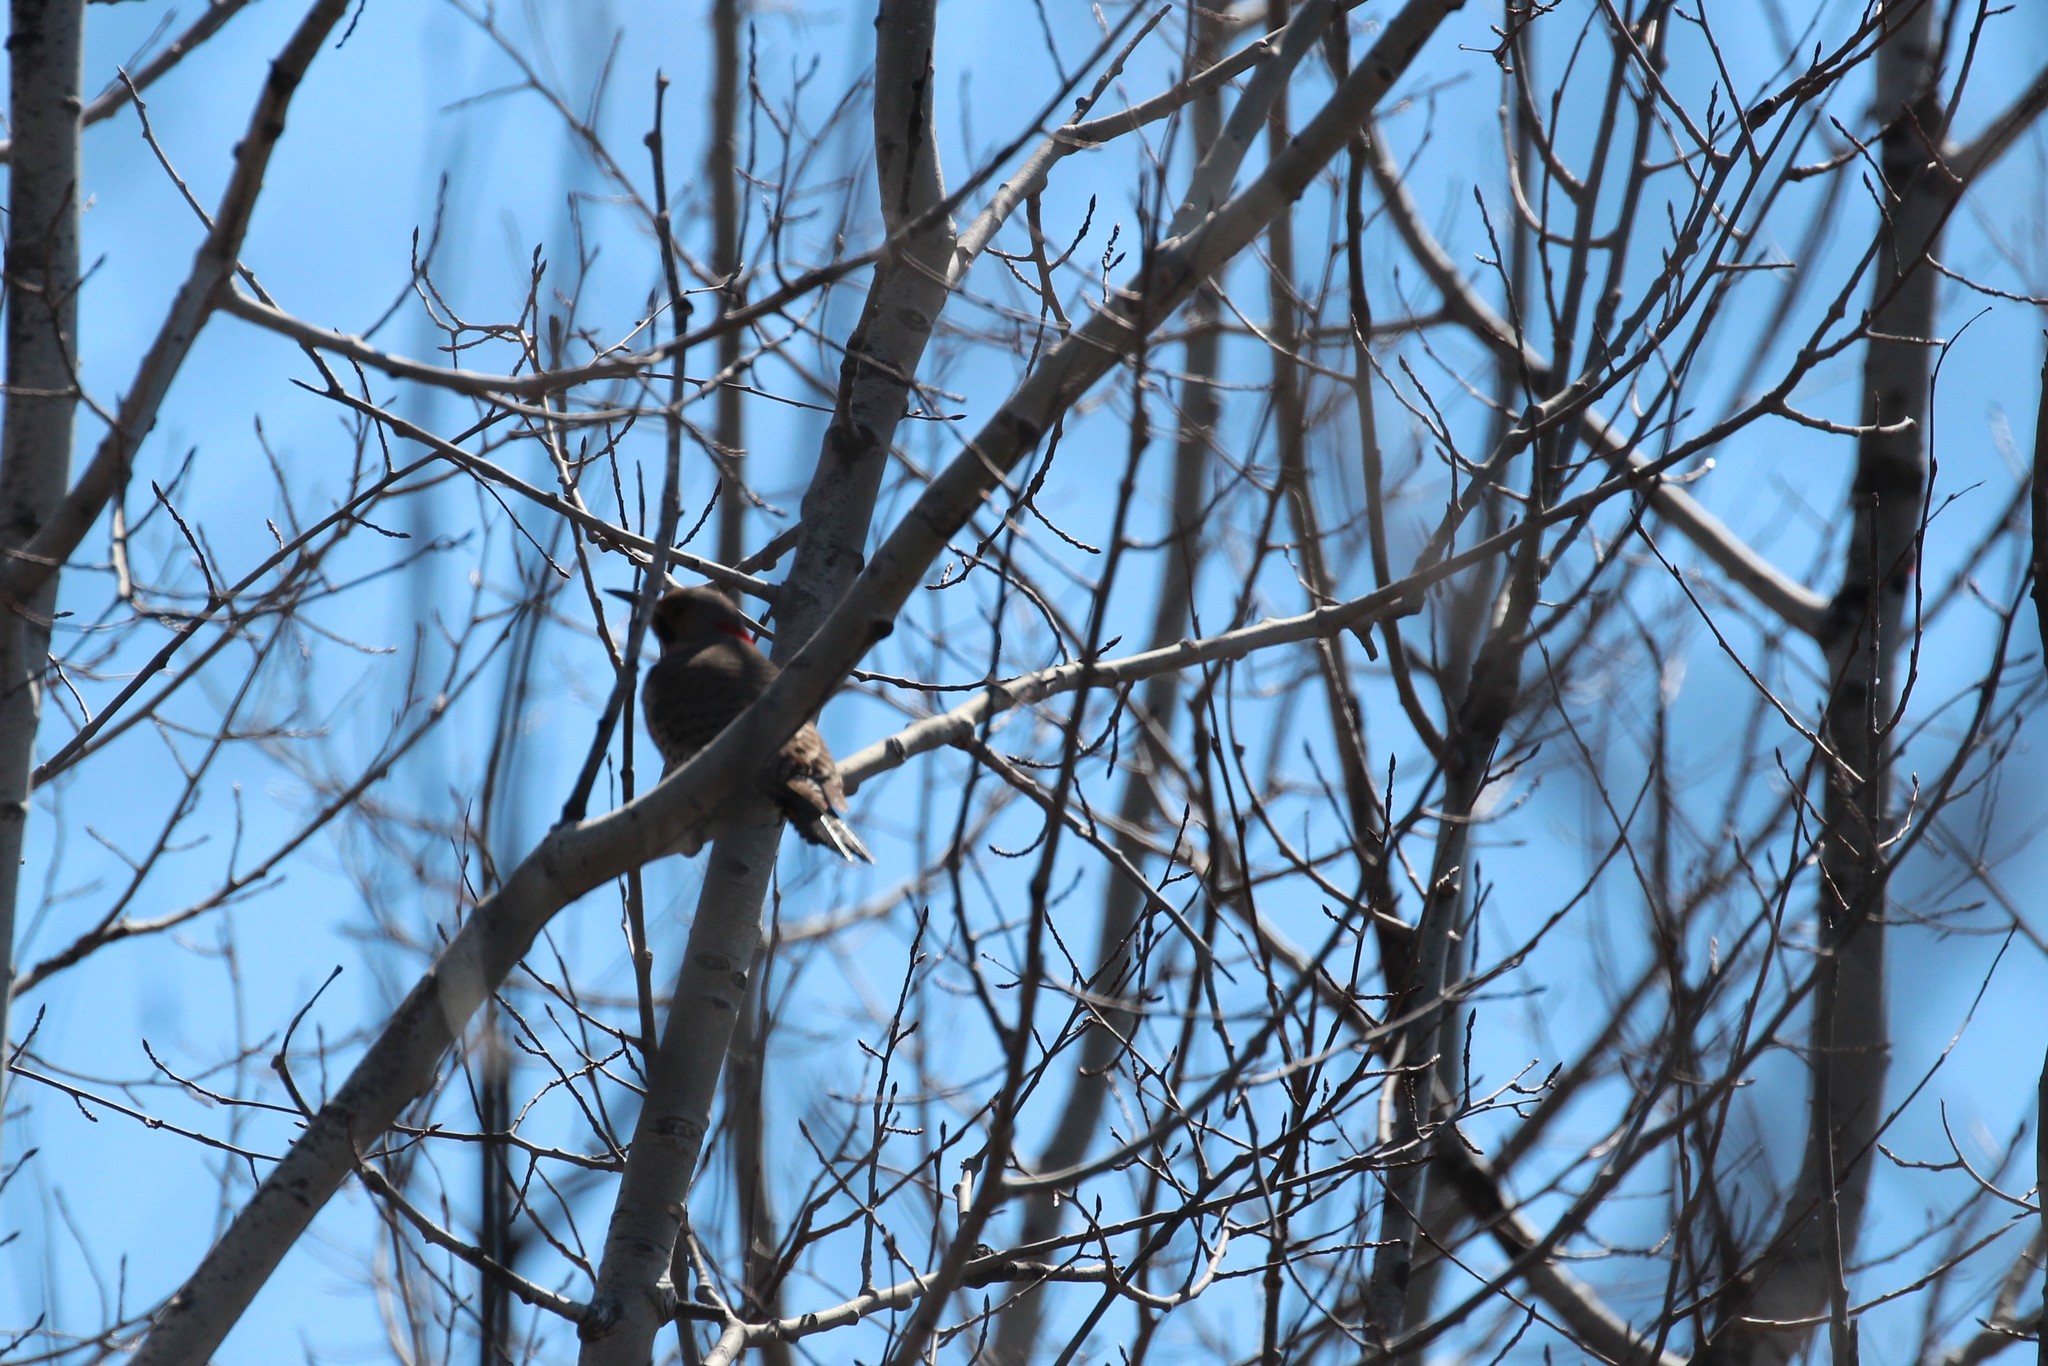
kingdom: Animalia
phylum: Chordata
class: Aves
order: Piciformes
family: Picidae
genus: Colaptes
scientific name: Colaptes auratus
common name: Northern flicker
